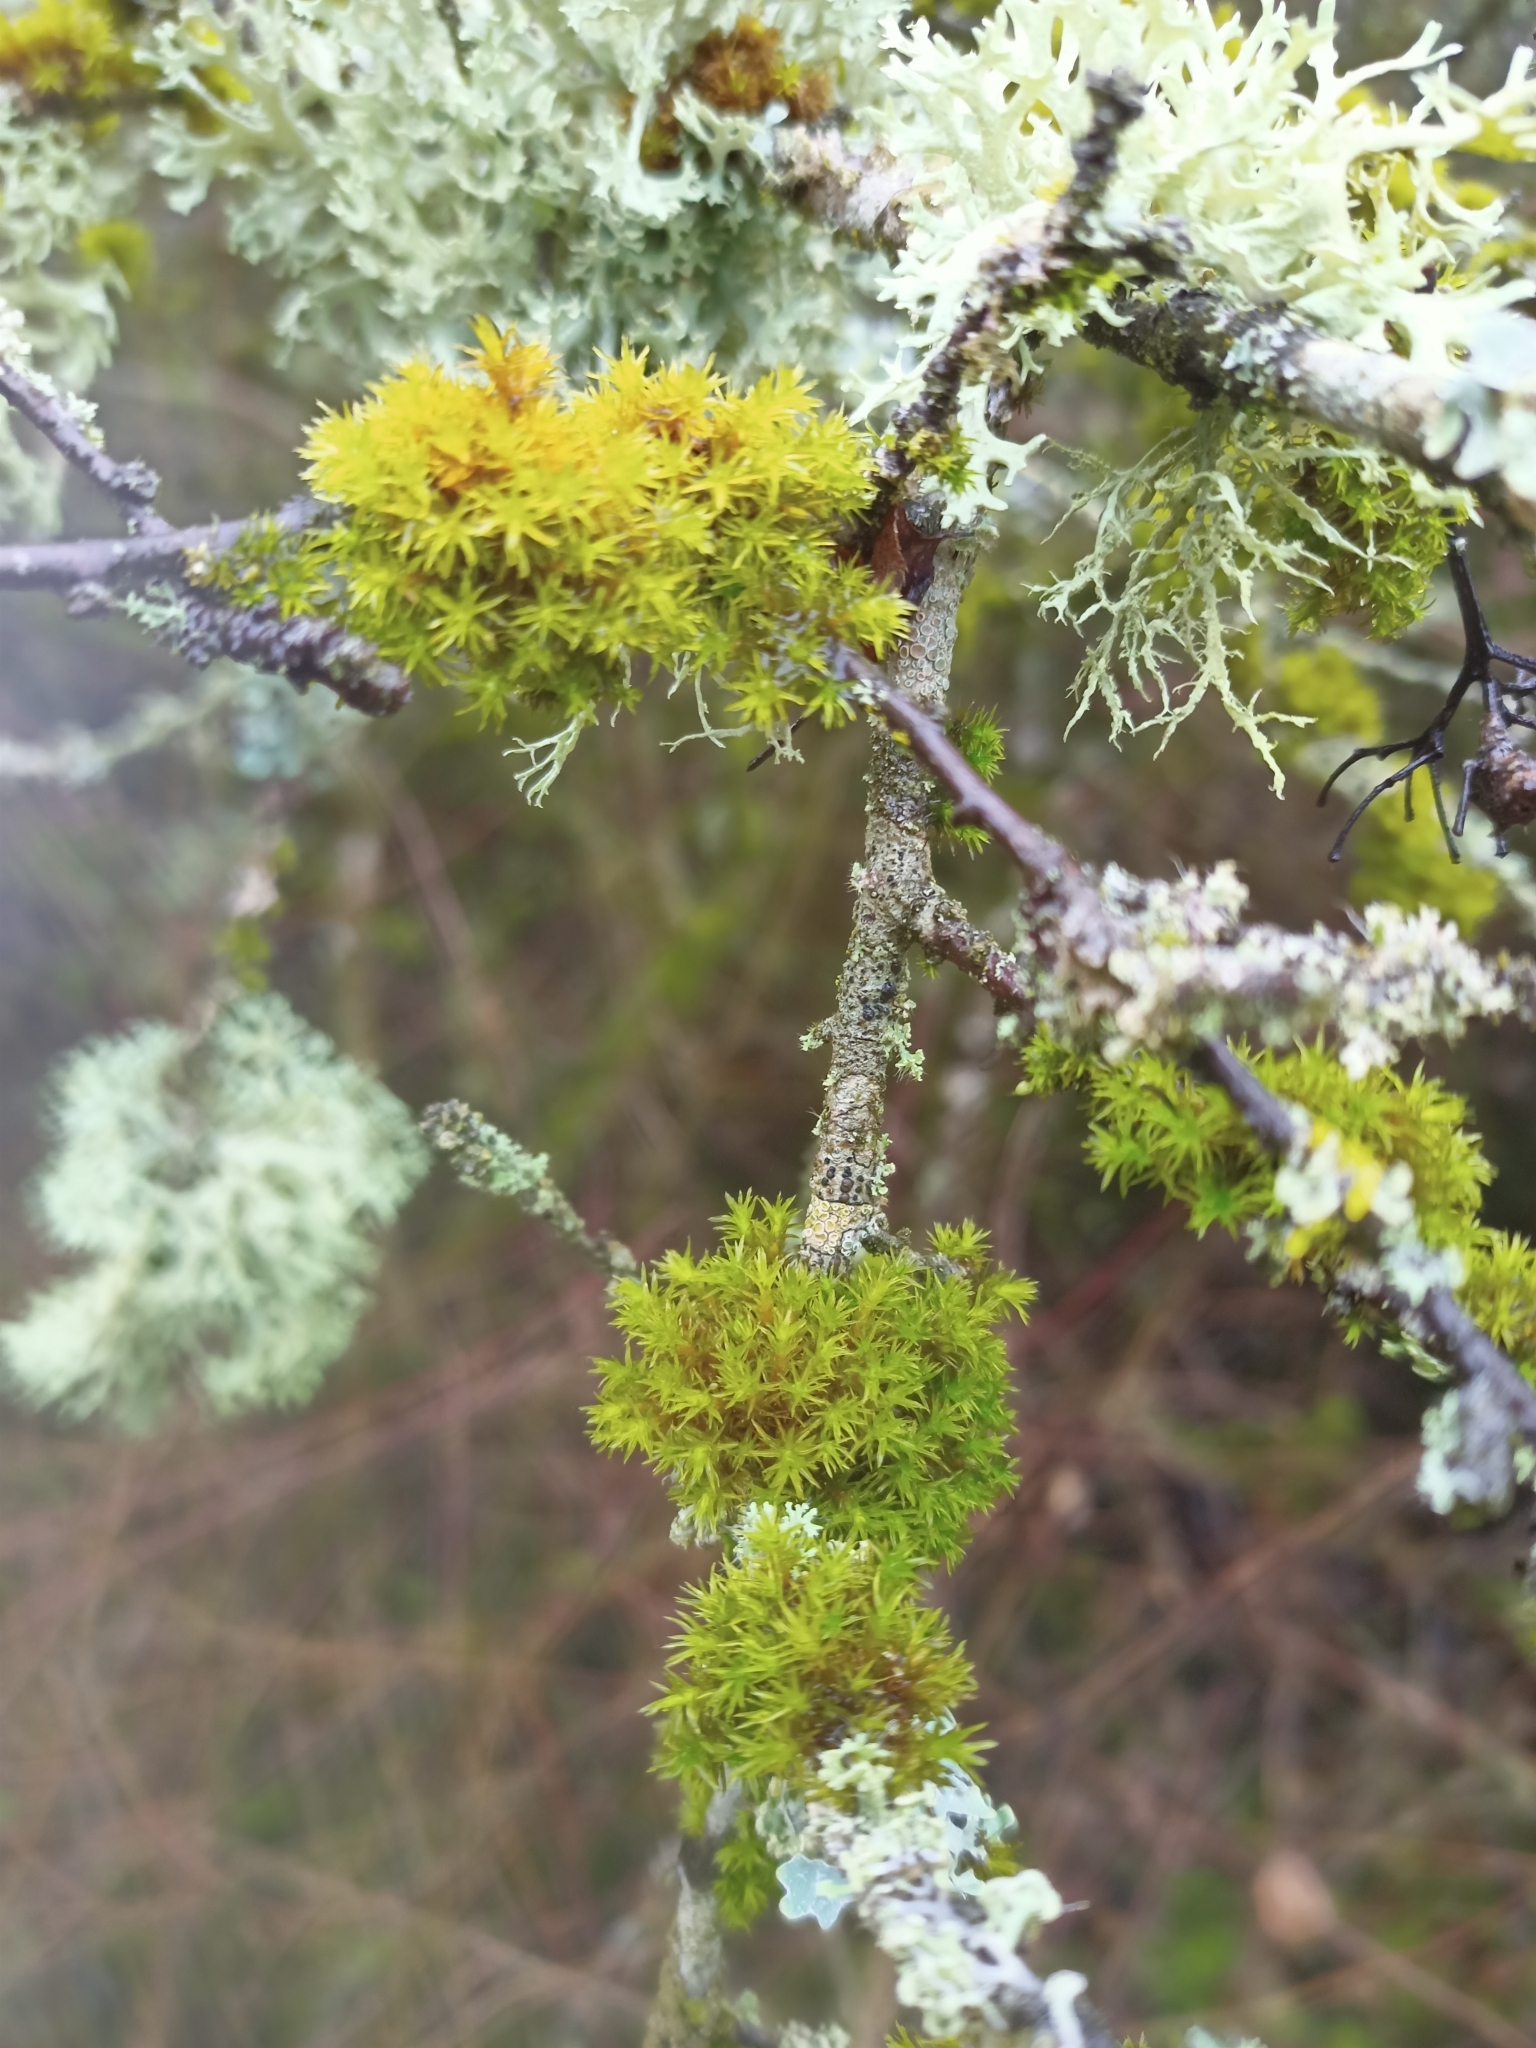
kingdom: Plantae
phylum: Bryophyta
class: Bryopsida
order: Orthotrichales
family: Orthotrichaceae
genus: Lewinskya
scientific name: Lewinskya affinis
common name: Wood bristle-moss
